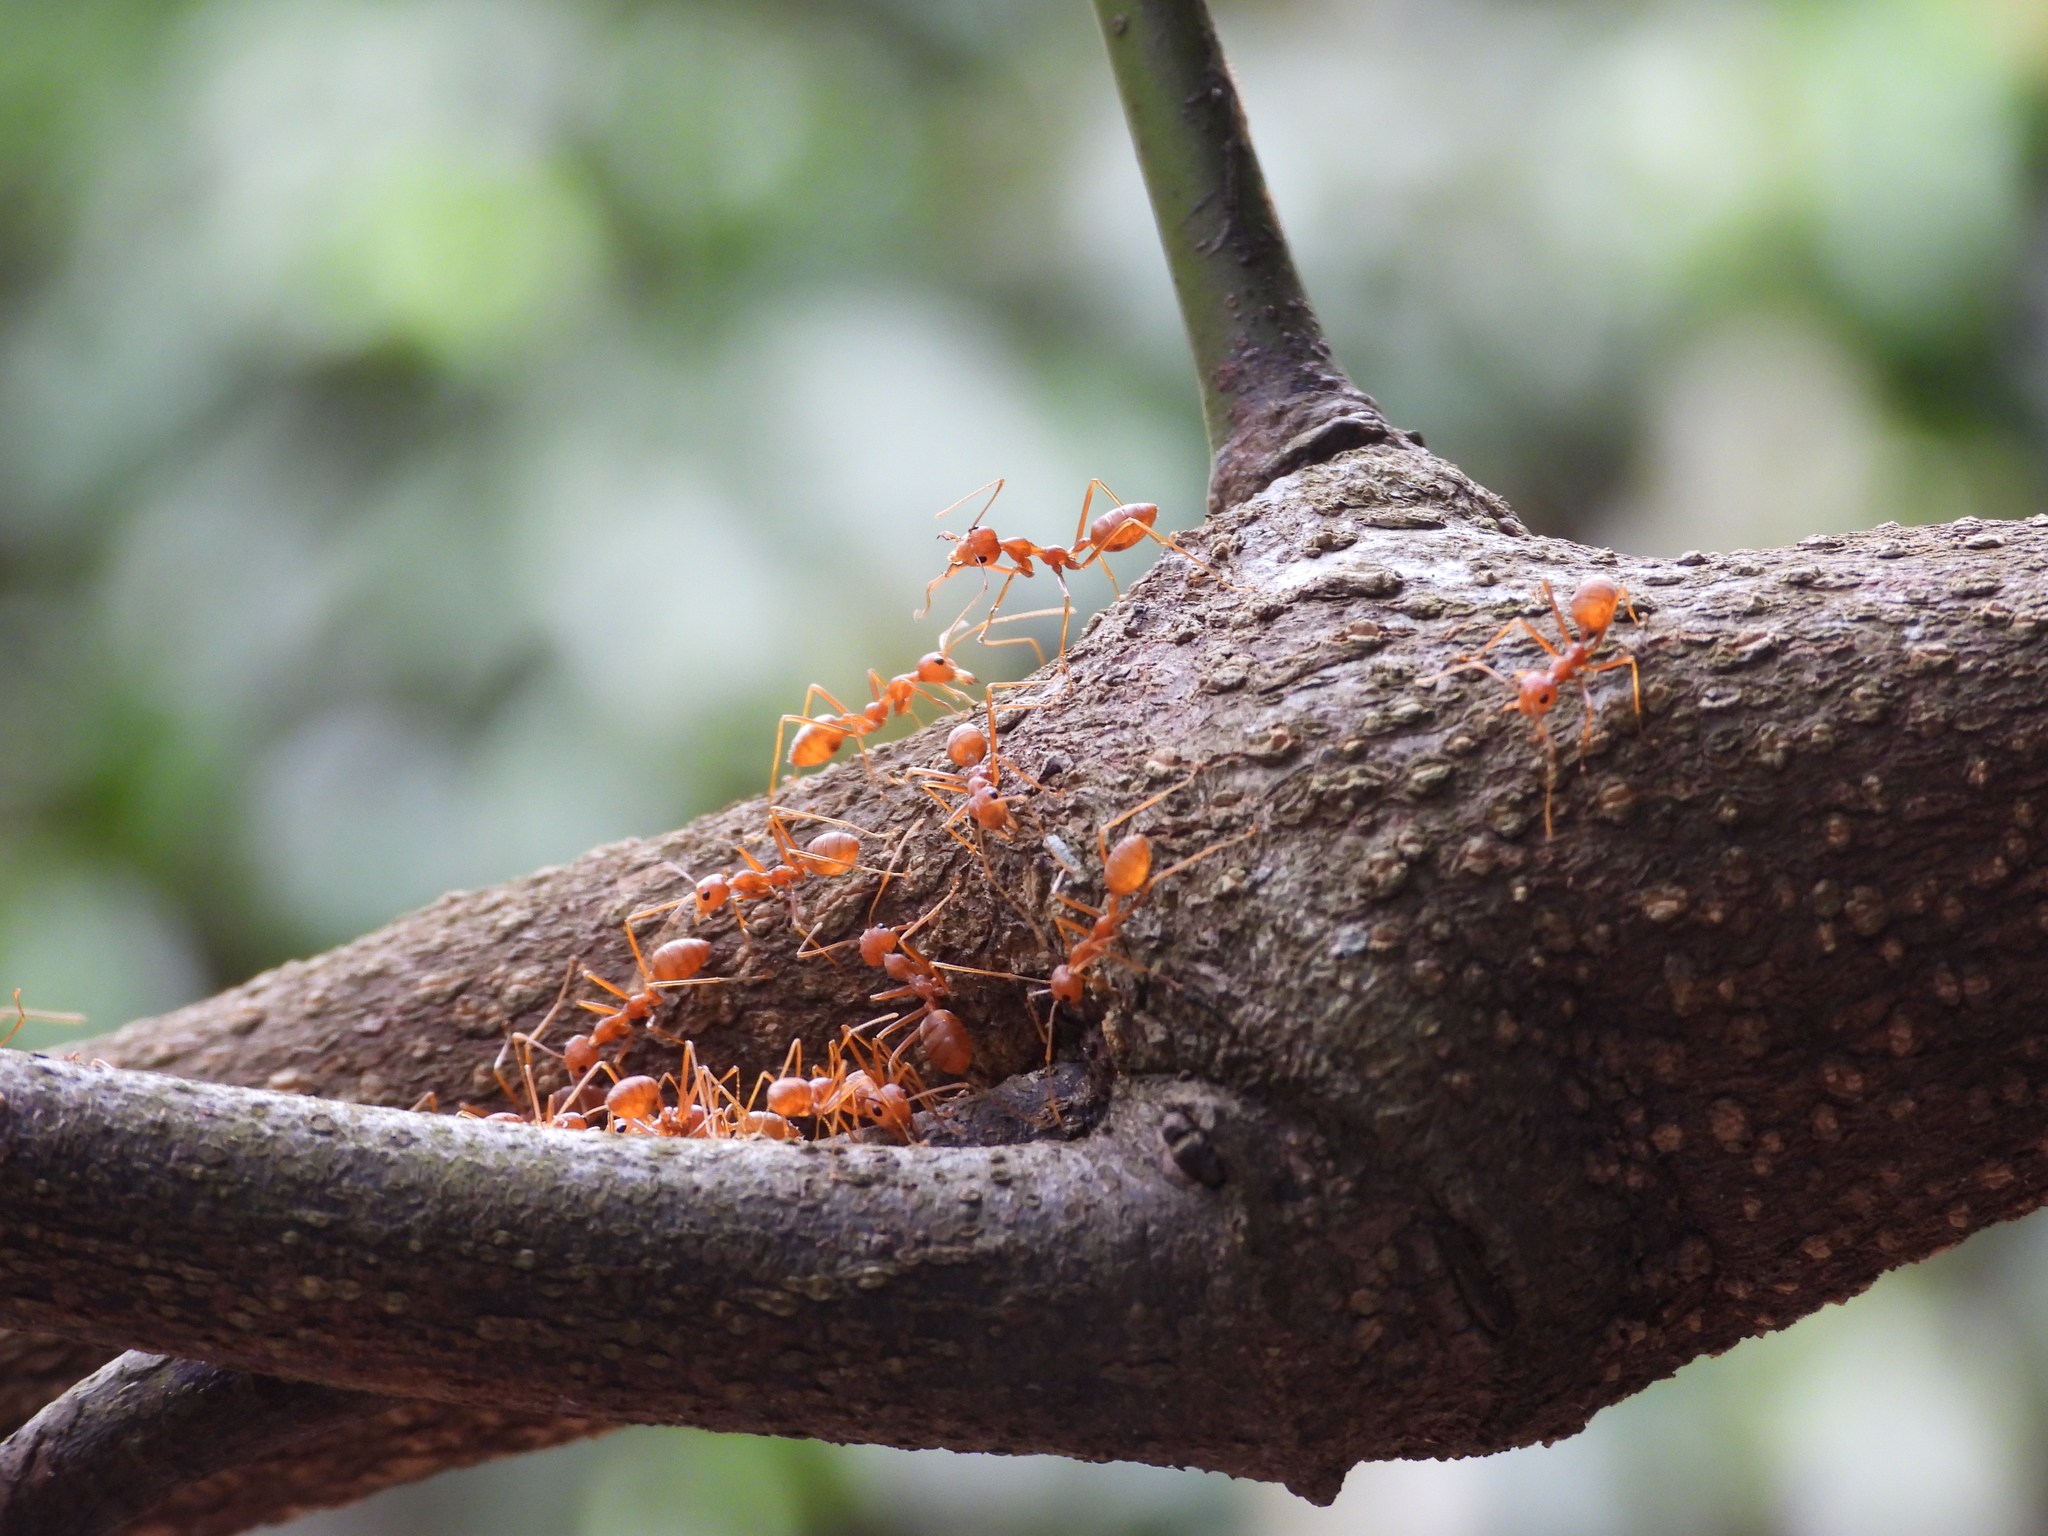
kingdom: Animalia
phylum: Arthropoda
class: Insecta
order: Hymenoptera
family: Formicidae
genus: Oecophylla
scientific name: Oecophylla smaragdina
